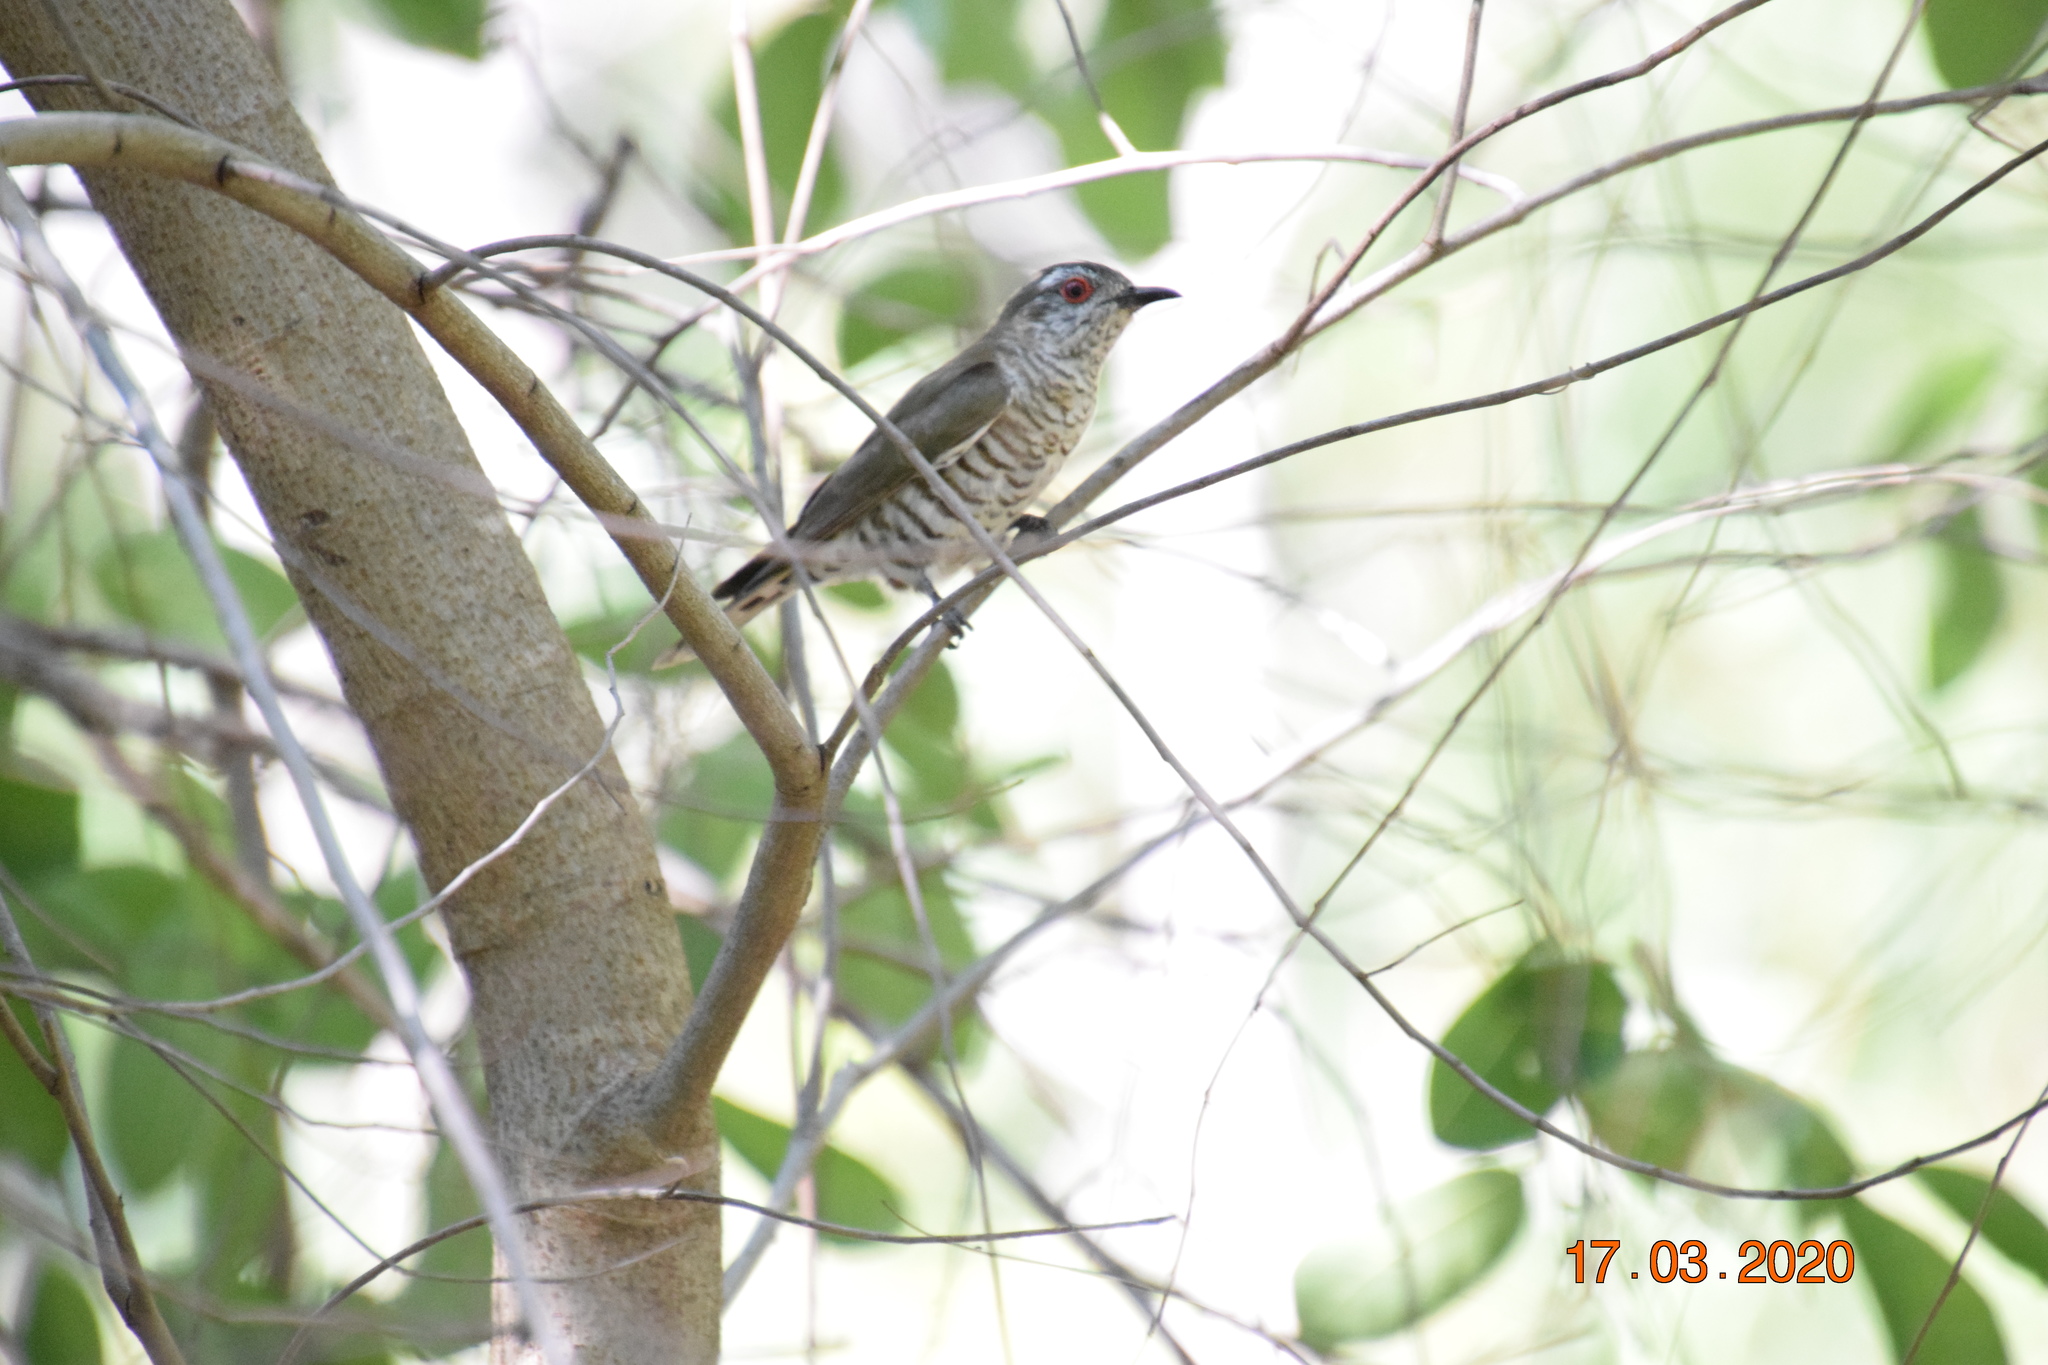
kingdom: Animalia
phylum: Chordata
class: Aves
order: Cuculiformes
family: Cuculidae
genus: Chrysococcyx
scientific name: Chrysococcyx minutillus
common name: Little bronze cuckoo
